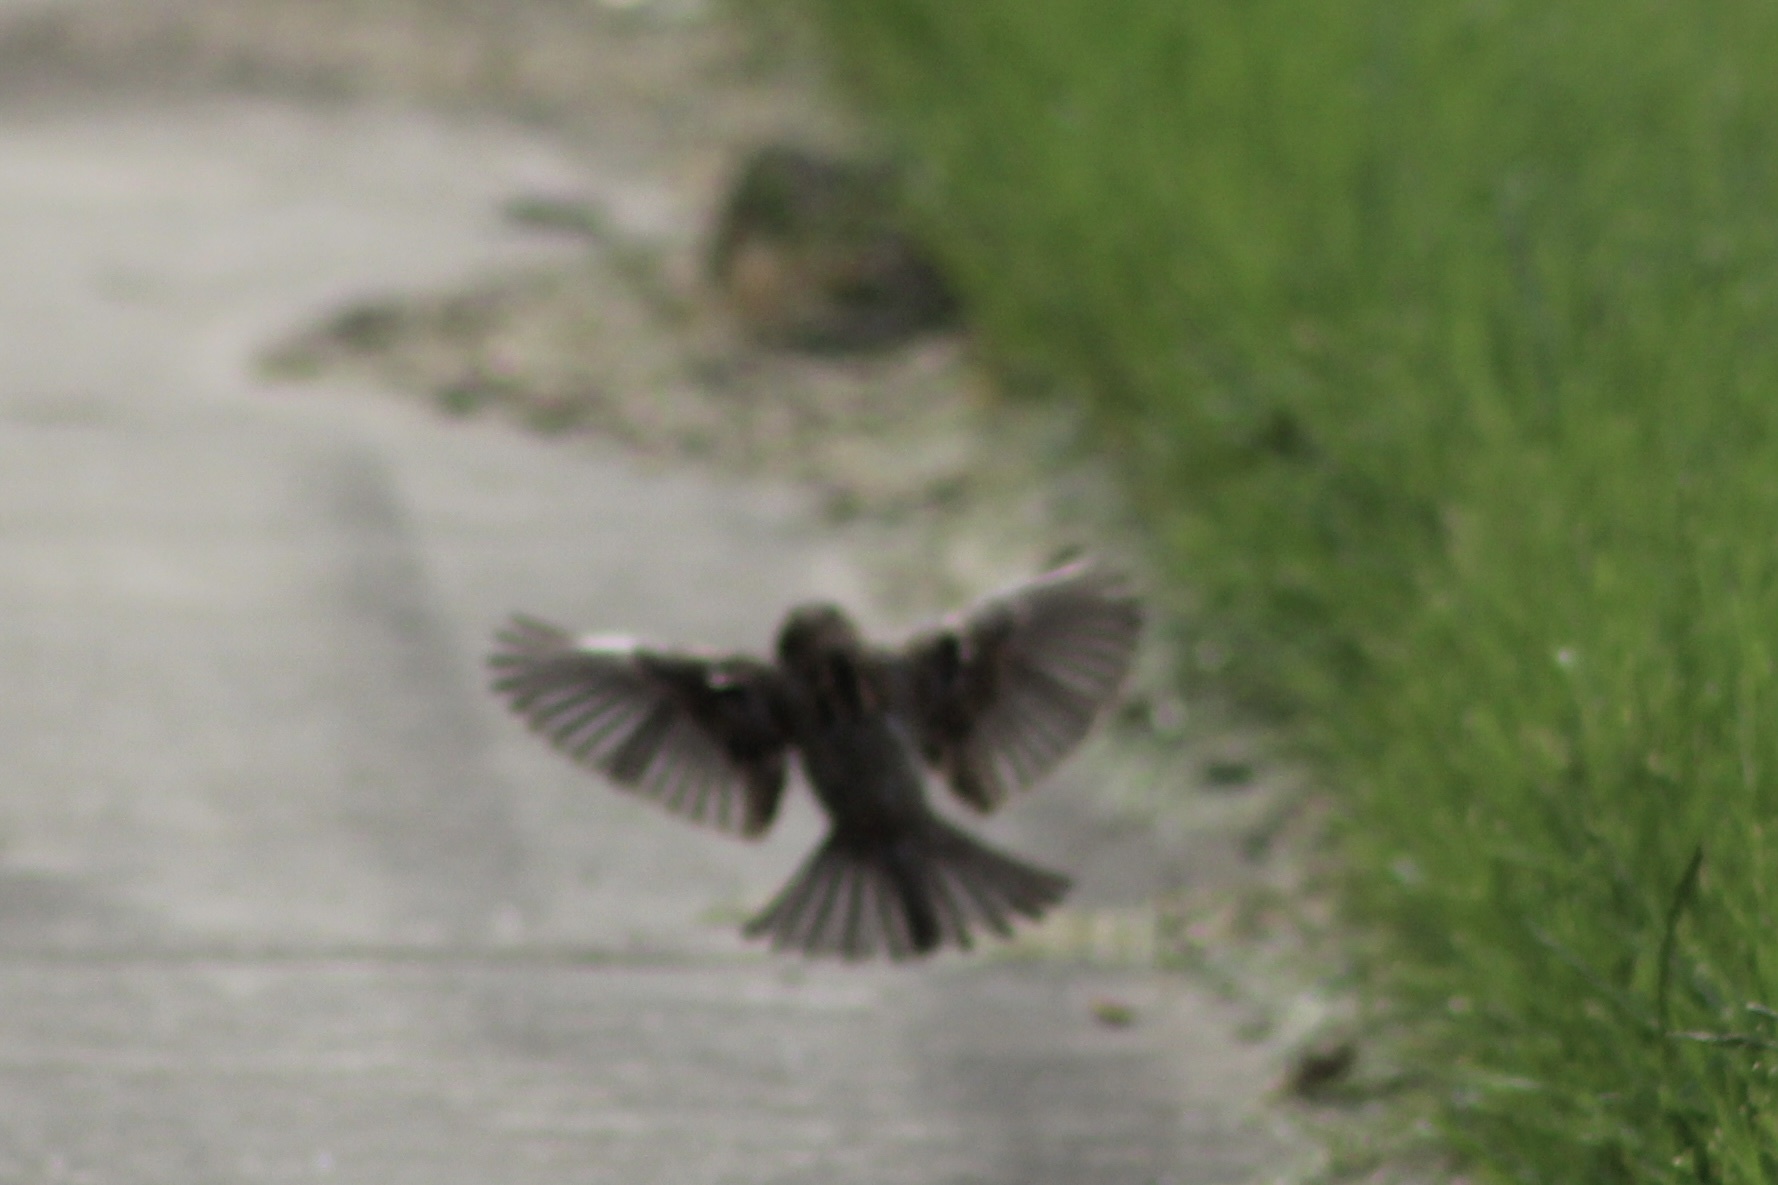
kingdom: Animalia
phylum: Chordata
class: Aves
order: Passeriformes
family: Passeridae
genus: Passer
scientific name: Passer domesticus
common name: House sparrow
